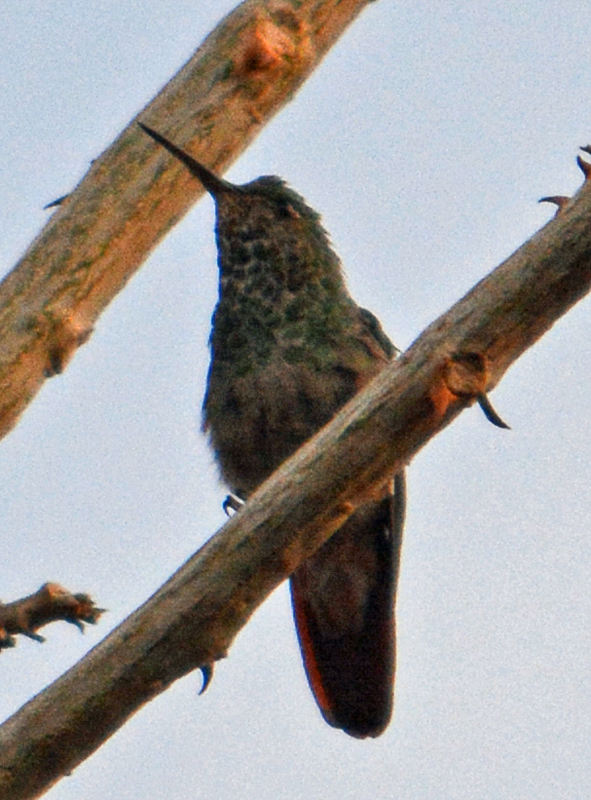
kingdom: Animalia
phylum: Chordata
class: Aves
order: Apodiformes
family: Trochilidae
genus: Saucerottia
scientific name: Saucerottia beryllina
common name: Berylline hummingbird
